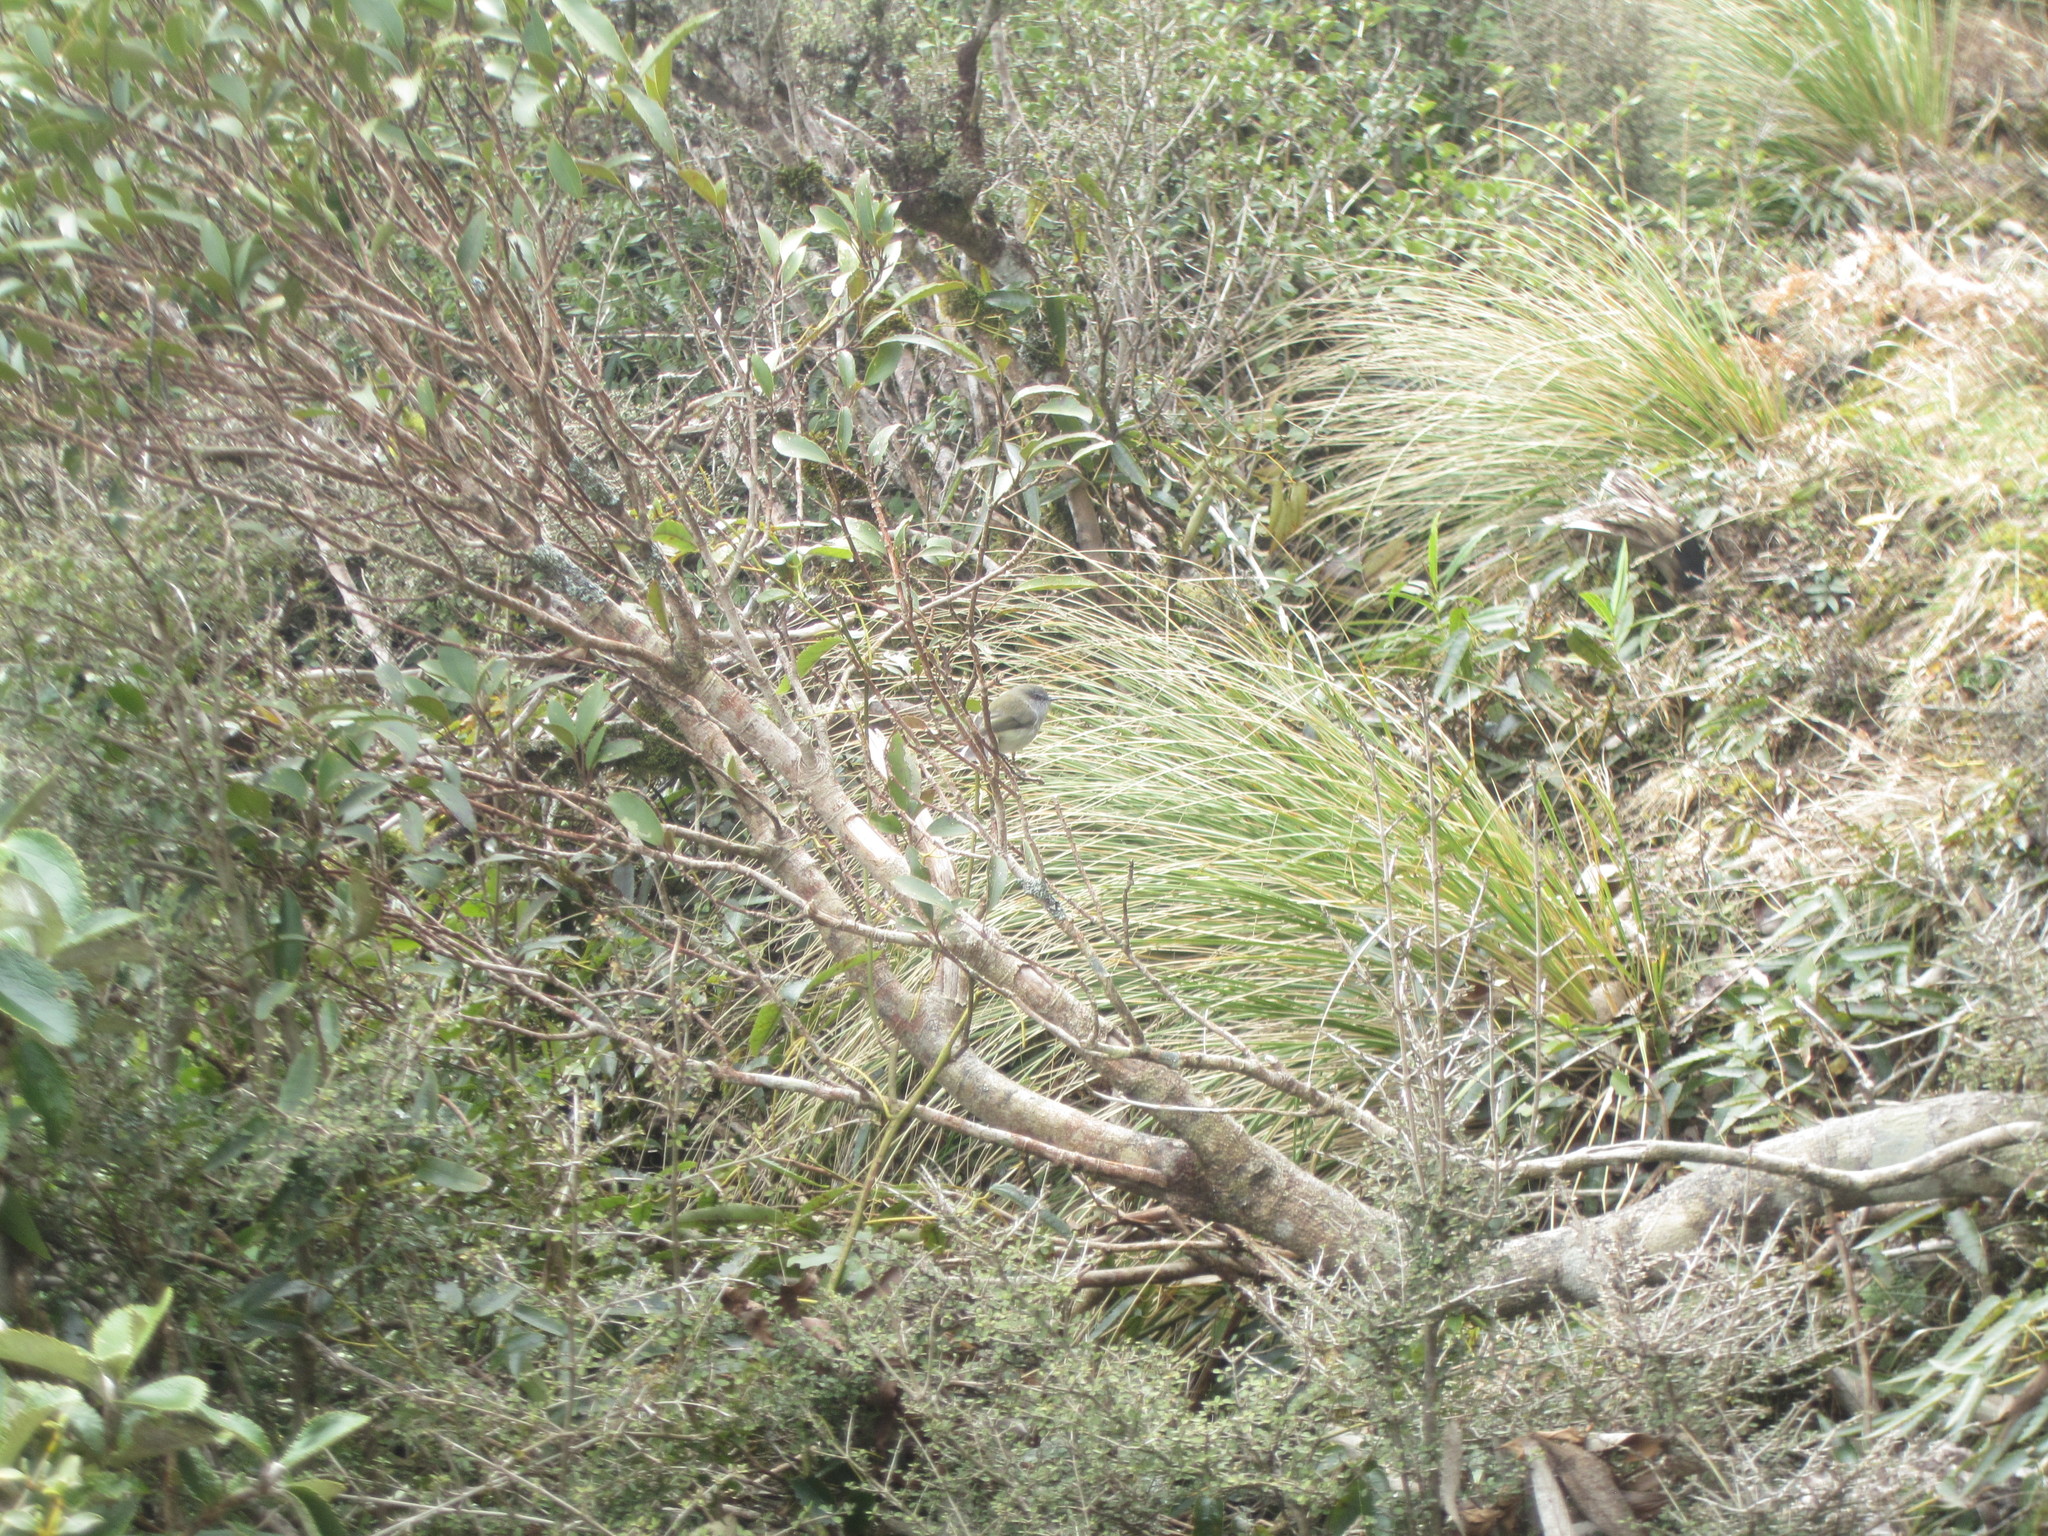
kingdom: Animalia
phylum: Chordata
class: Aves
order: Passeriformes
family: Acanthizidae
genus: Gerygone
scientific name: Gerygone igata
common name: Grey gerygone
